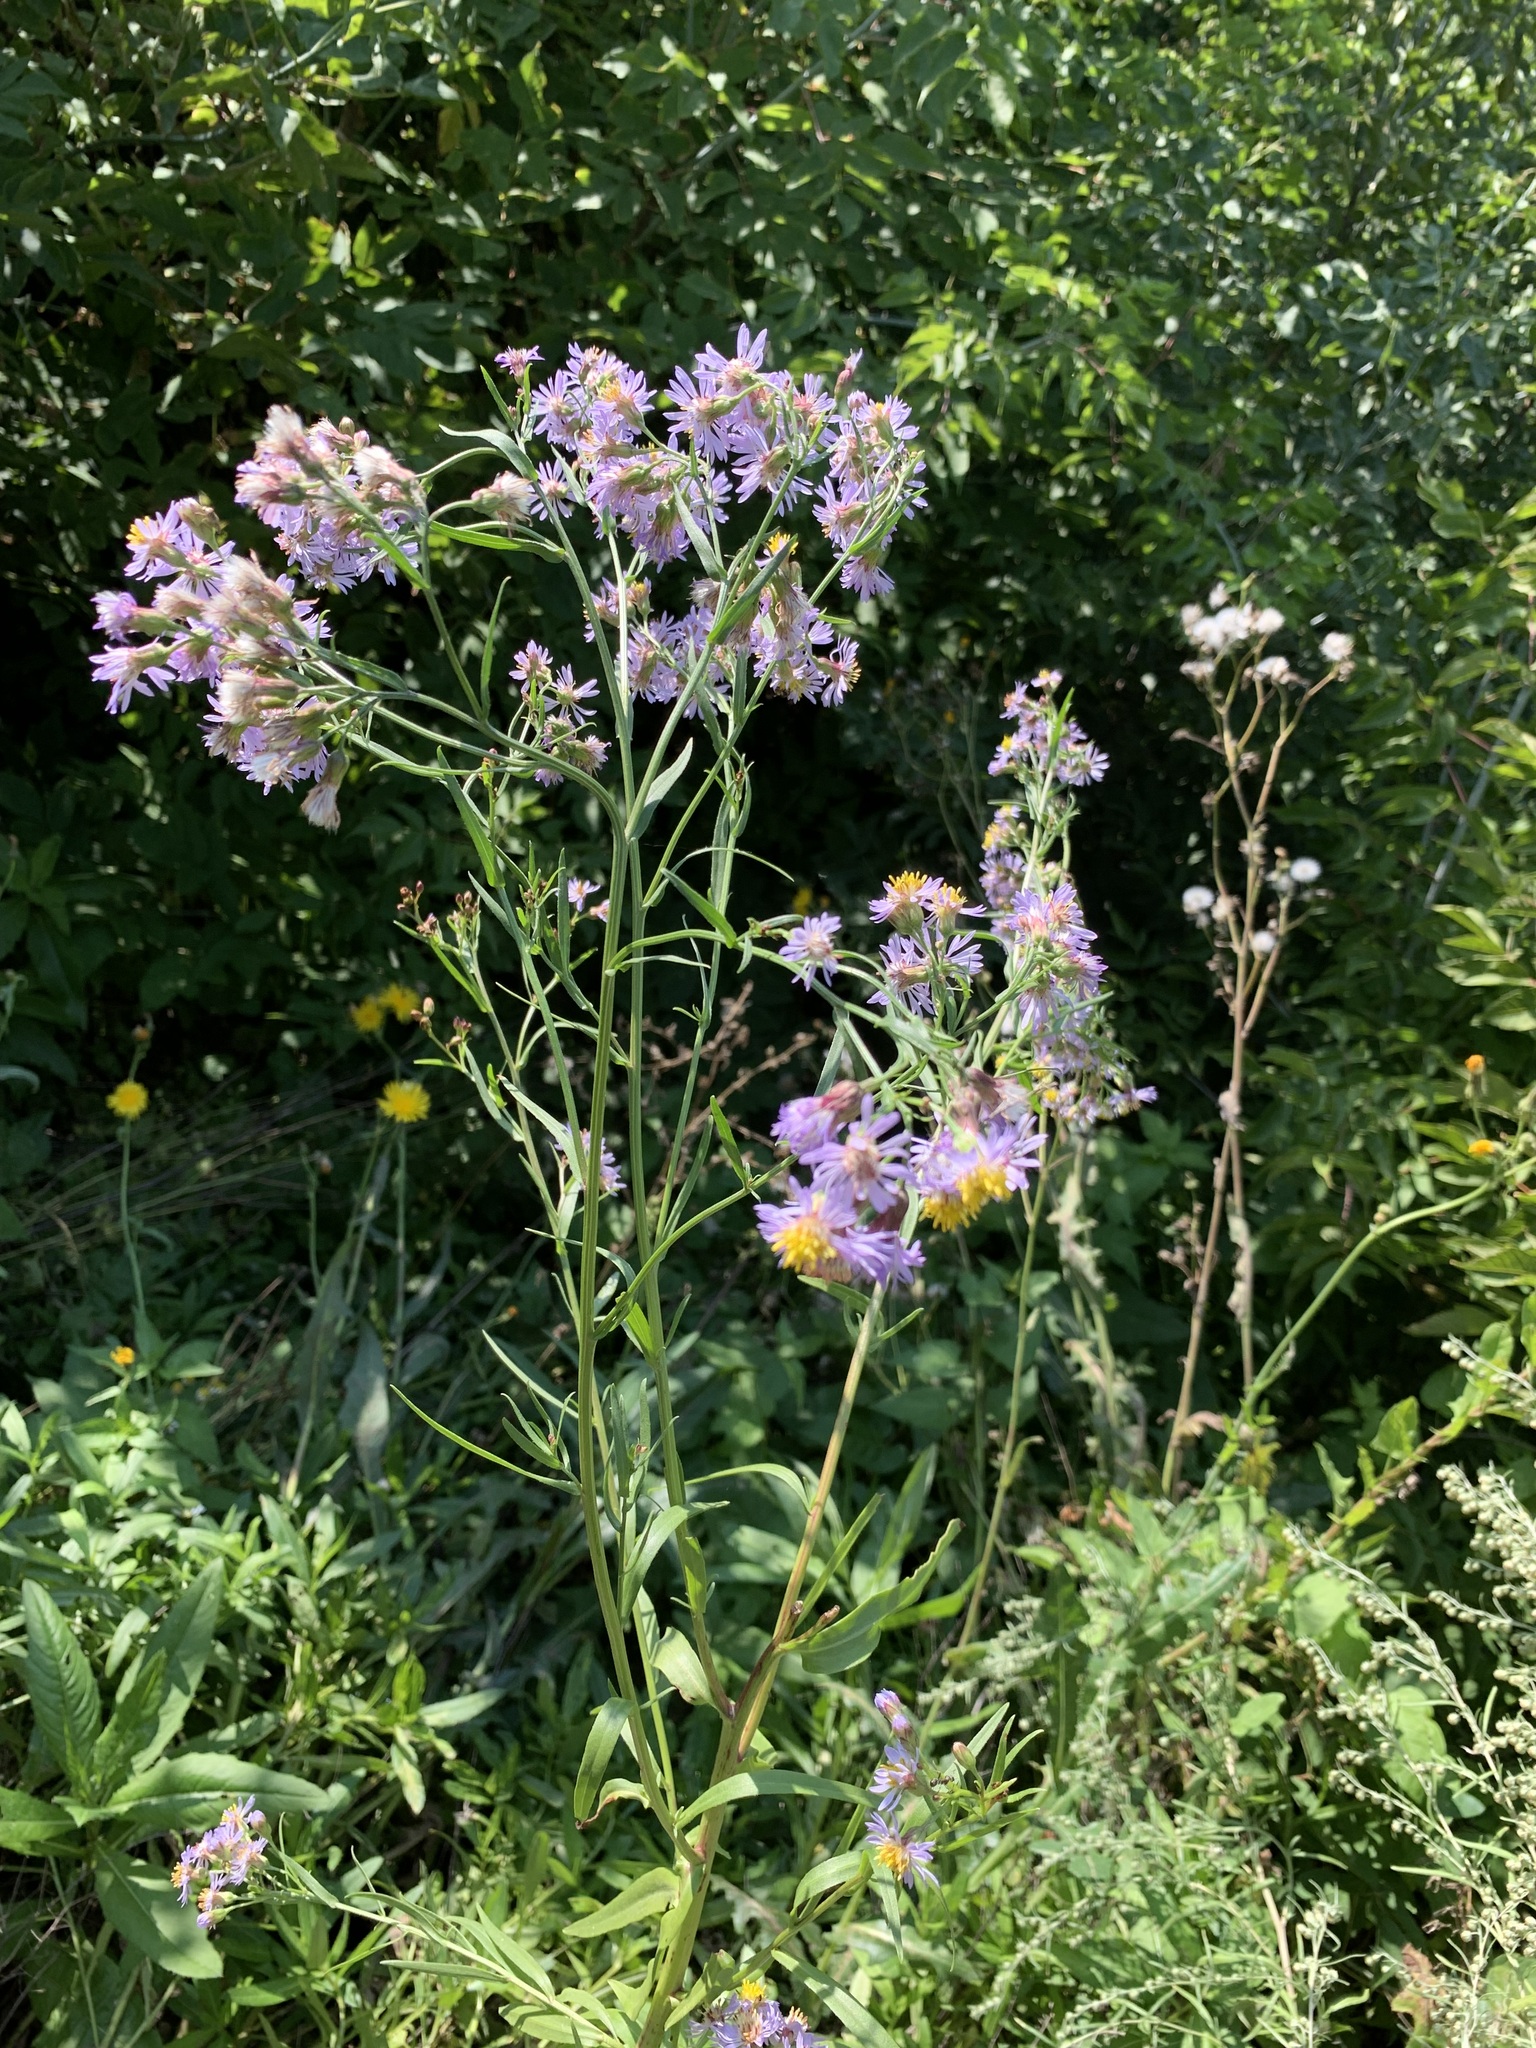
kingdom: Plantae
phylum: Tracheophyta
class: Magnoliopsida
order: Asterales
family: Asteraceae
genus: Tripolium
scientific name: Tripolium pannonicum
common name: Sea aster
